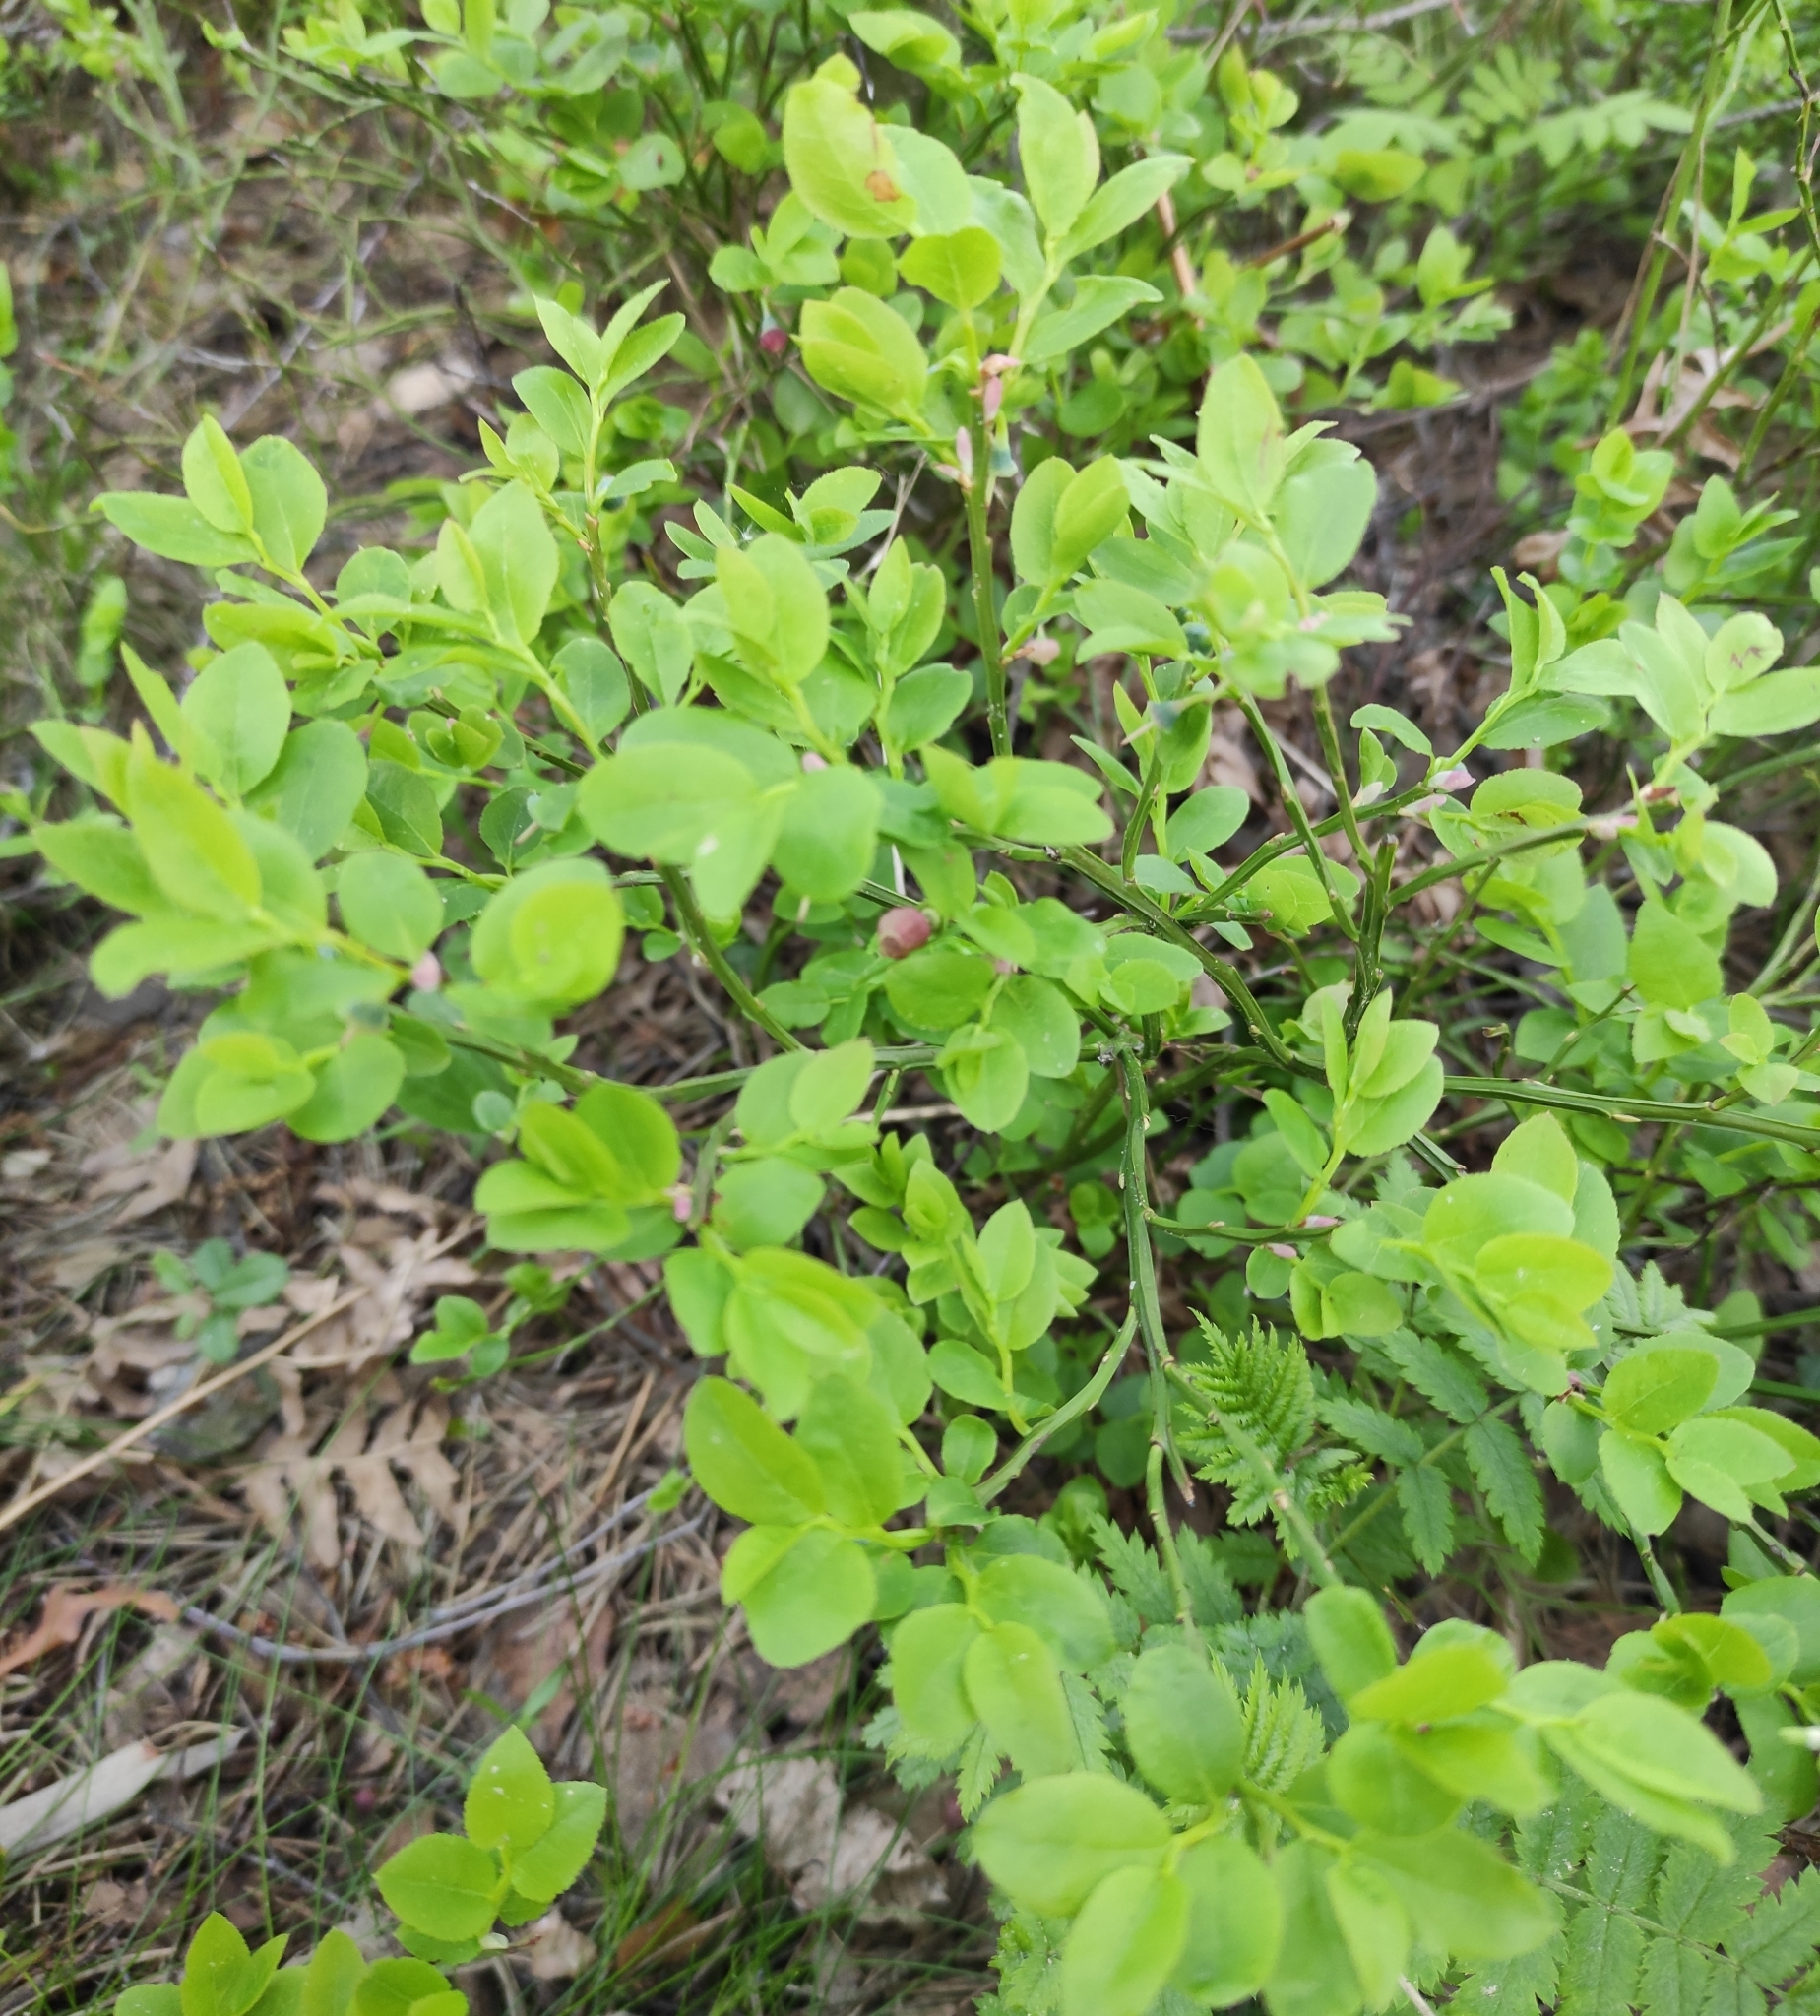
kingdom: Plantae
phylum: Tracheophyta
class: Magnoliopsida
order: Ericales
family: Ericaceae
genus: Vaccinium
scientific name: Vaccinium myrtillus
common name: Bilberry
